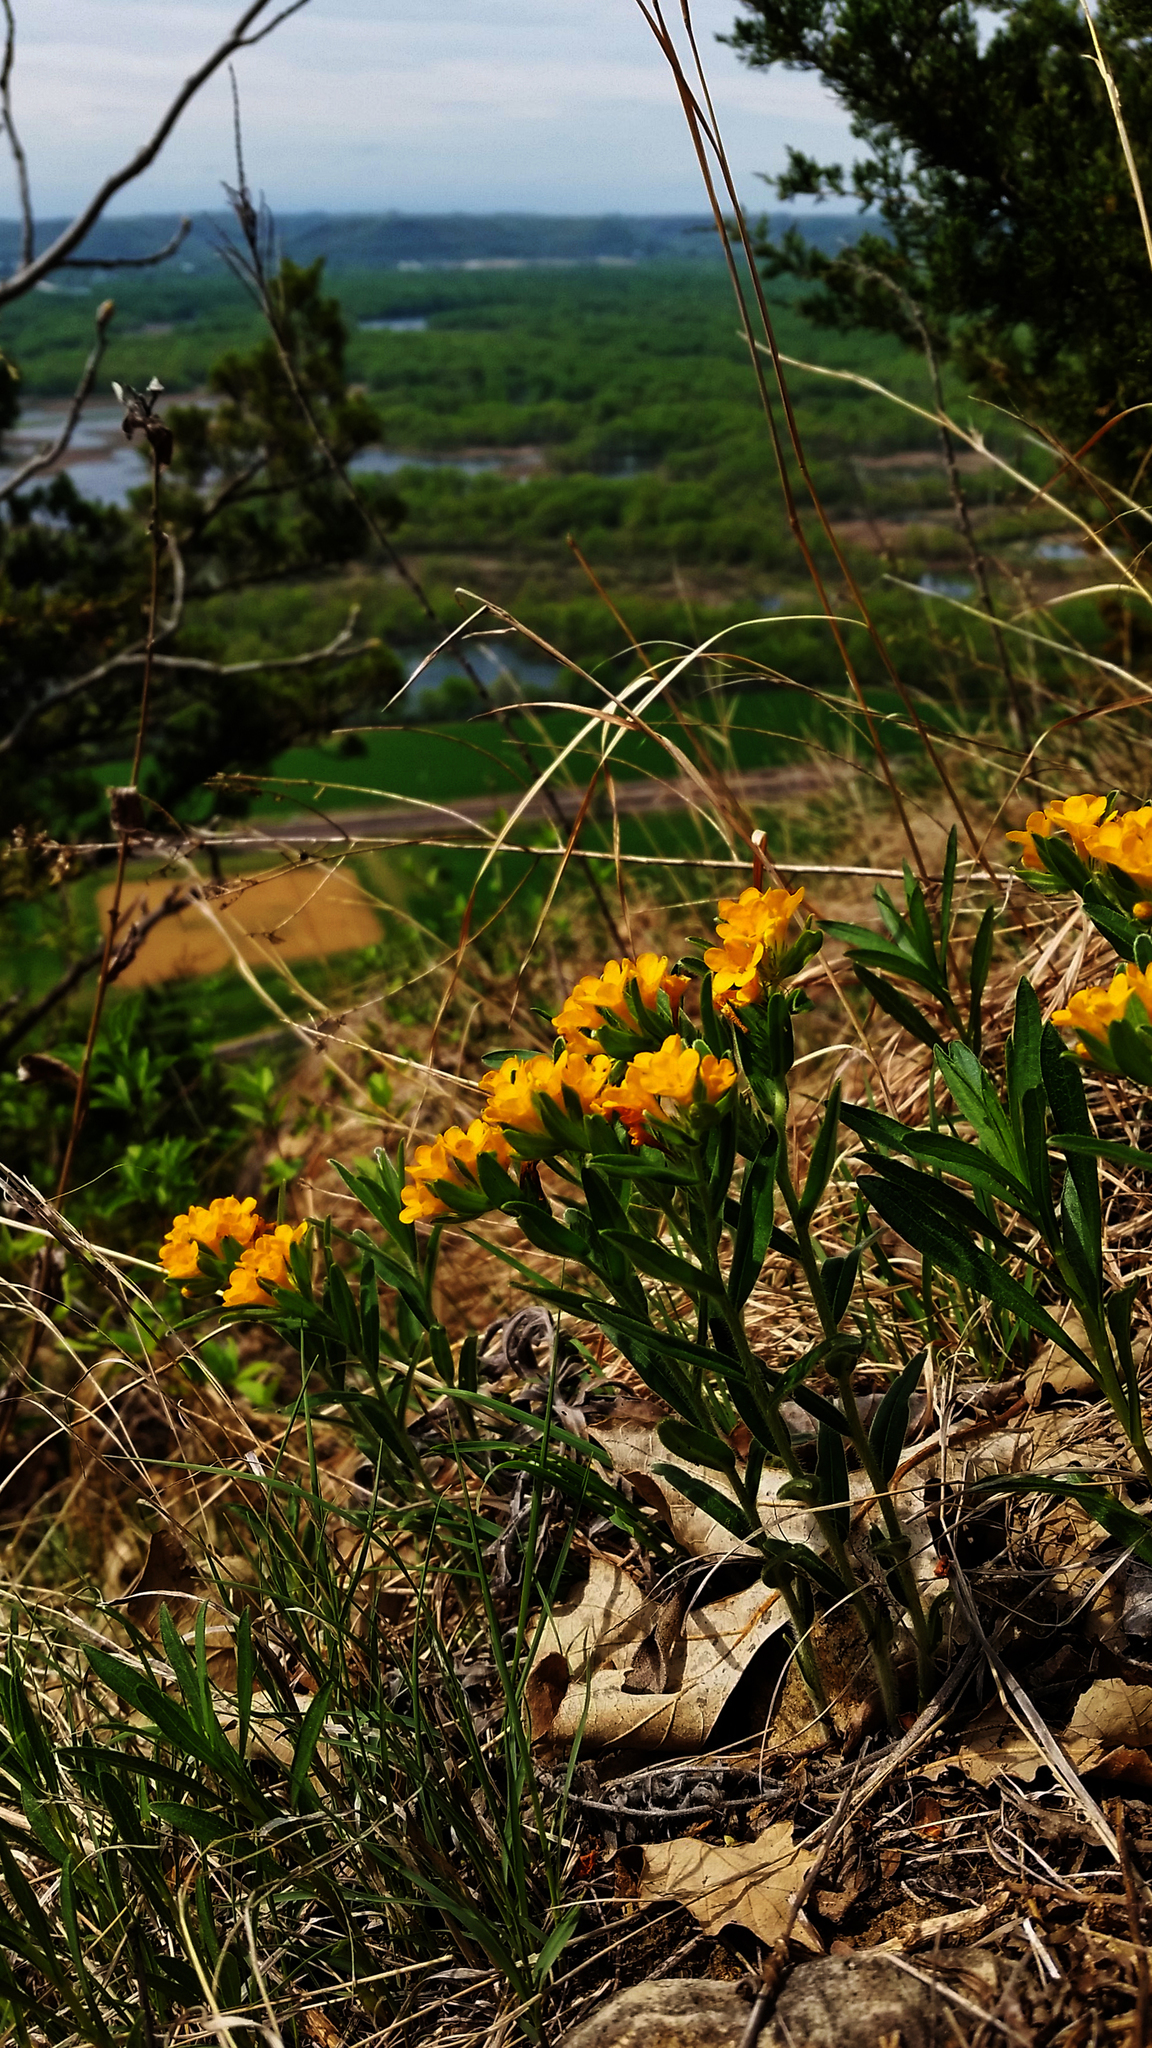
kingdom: Plantae
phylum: Tracheophyta
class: Magnoliopsida
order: Boraginales
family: Boraginaceae
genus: Lithospermum
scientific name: Lithospermum canescens
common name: Hoary puccoon
